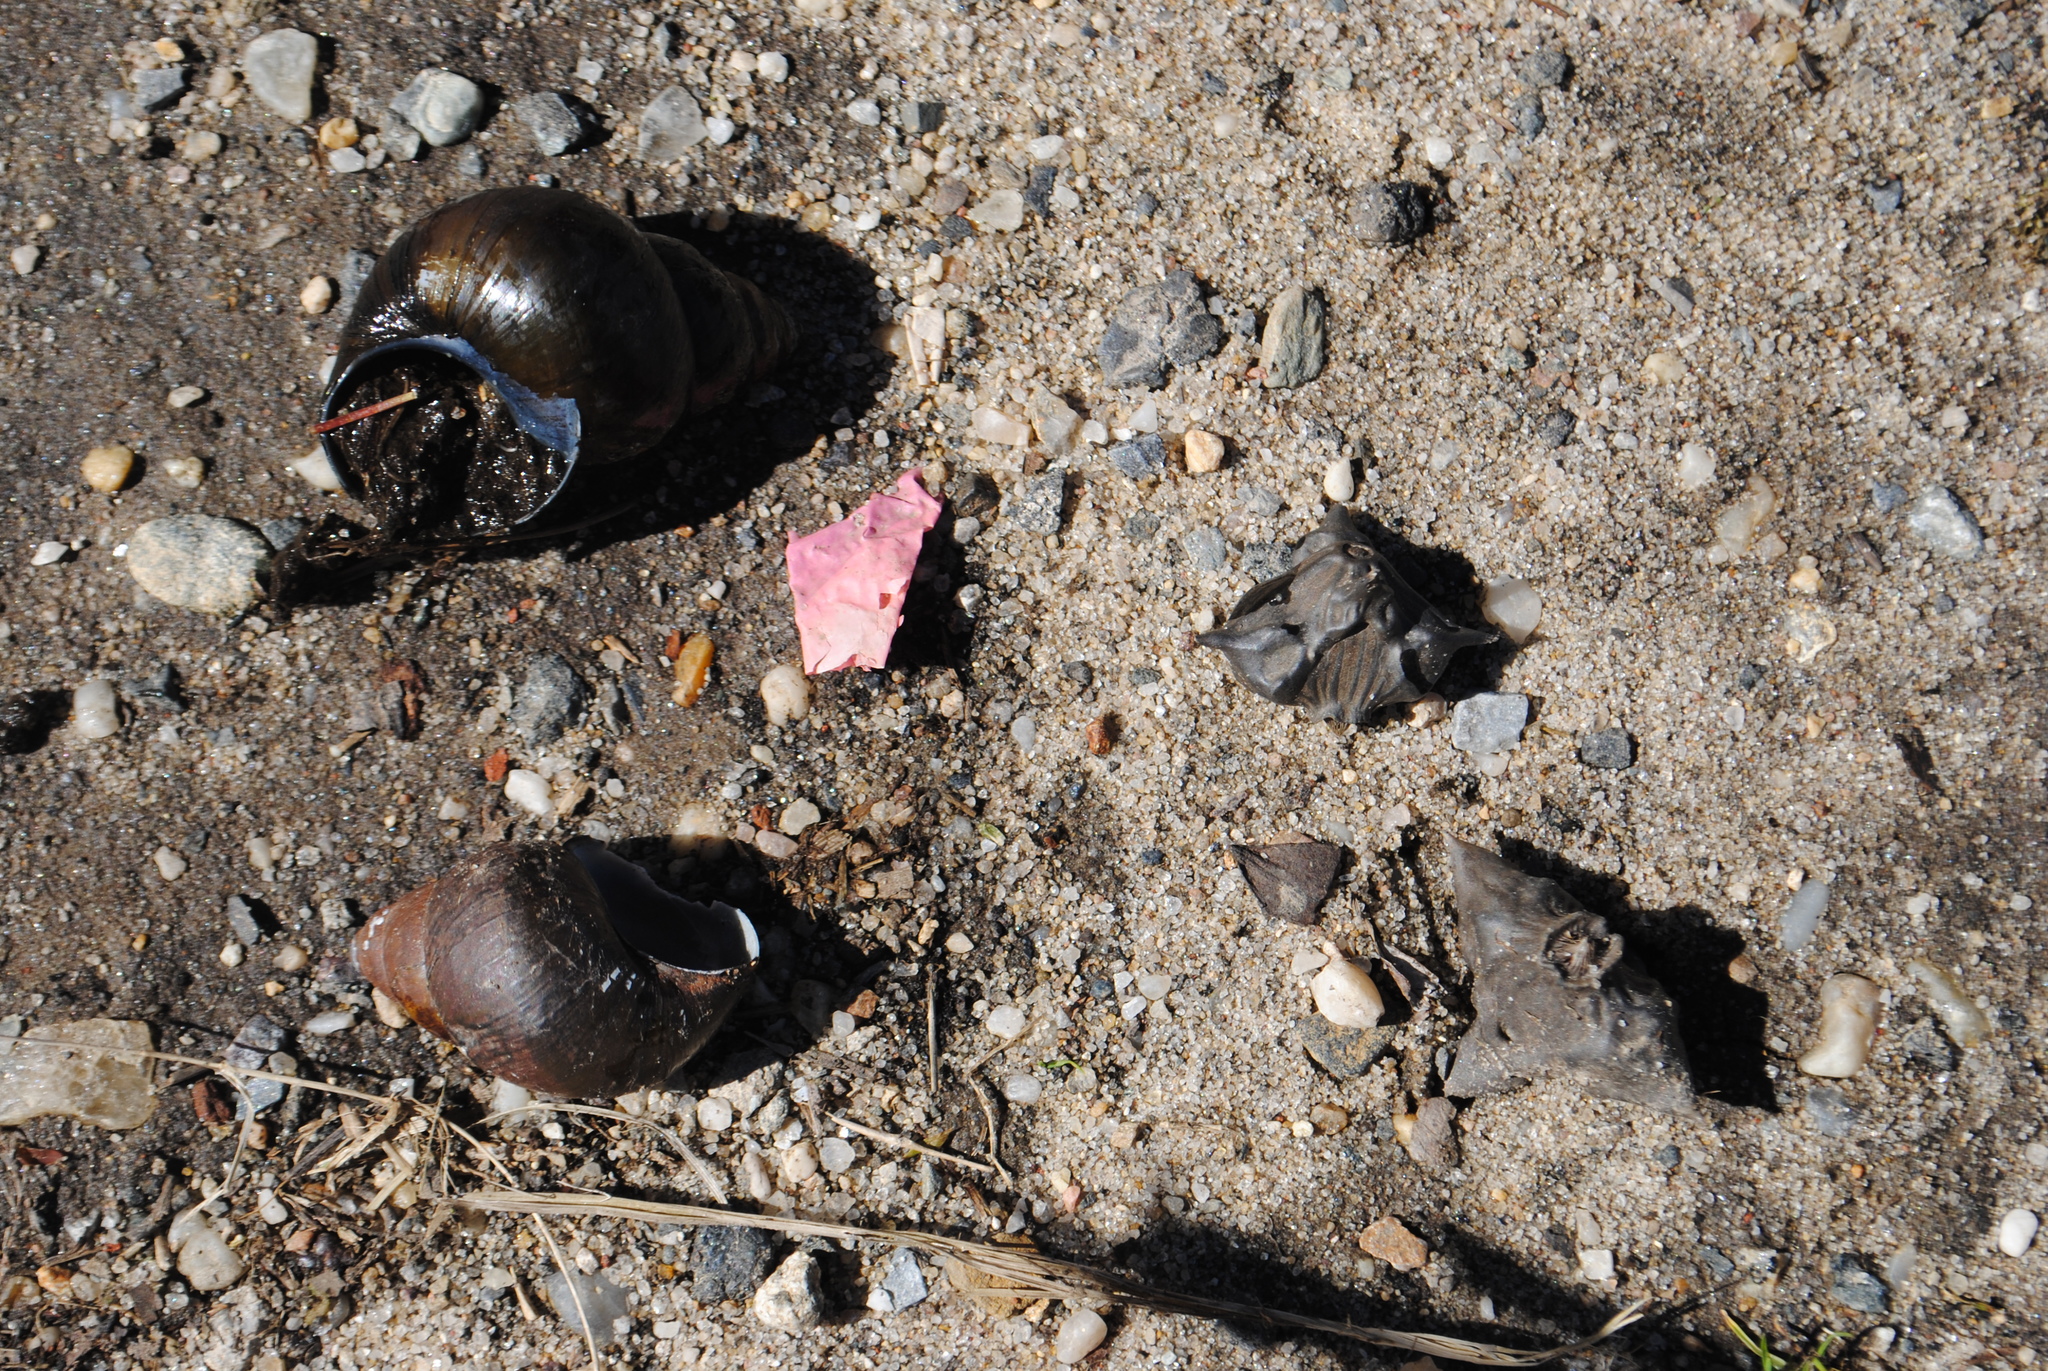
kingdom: Plantae
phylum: Tracheophyta
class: Magnoliopsida
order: Myrtales
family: Lythraceae
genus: Trapa
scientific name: Trapa natans
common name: Water chestnut
